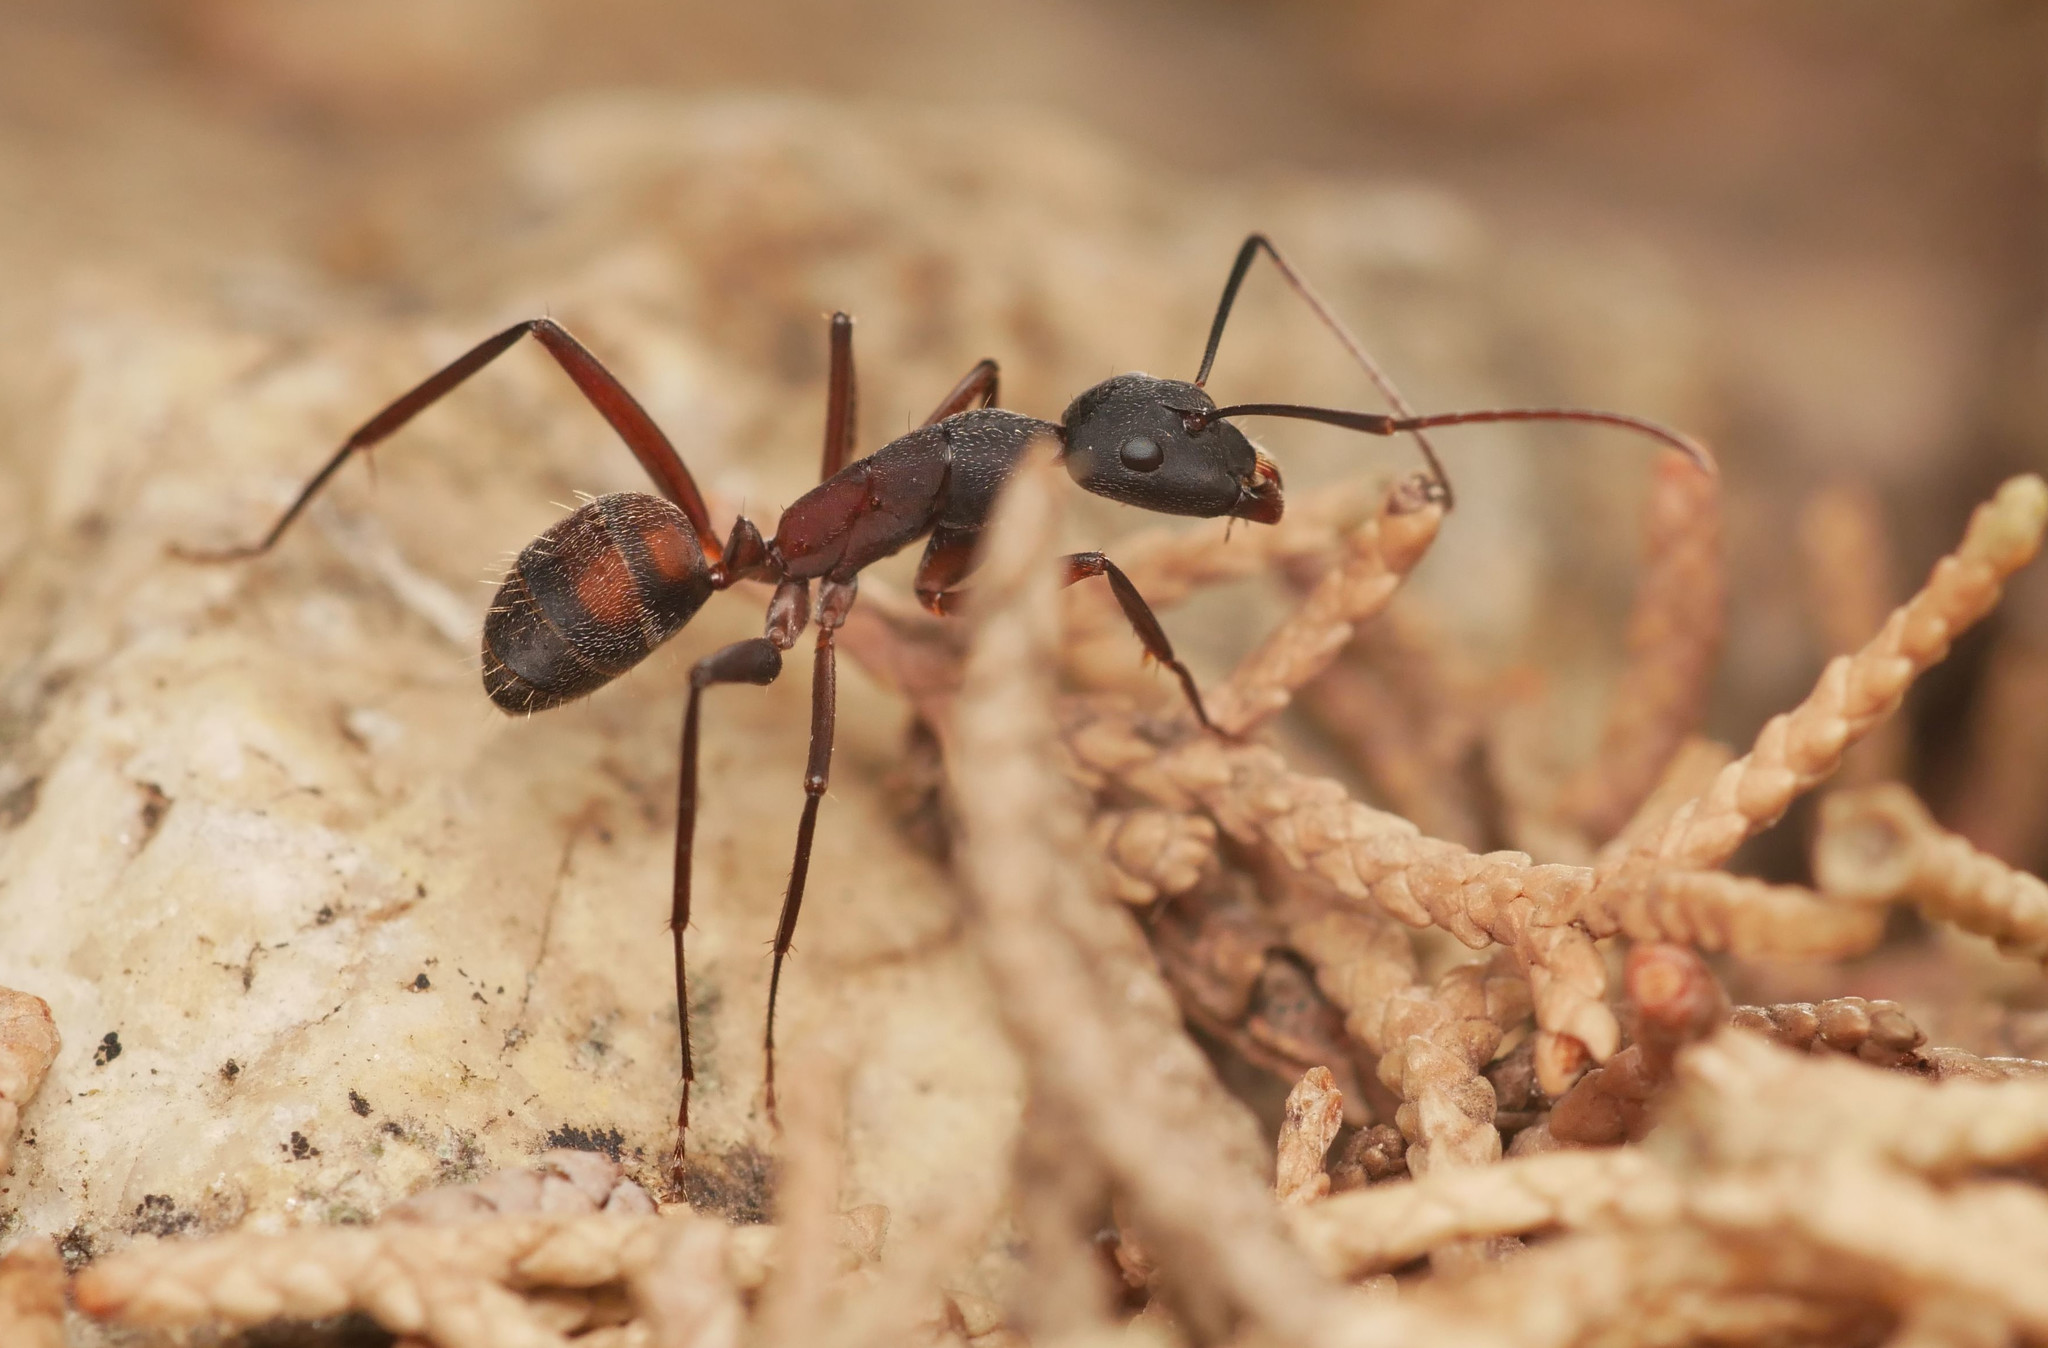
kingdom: Animalia
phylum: Arthropoda
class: Insecta
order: Hymenoptera
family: Formicidae
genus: Camponotus
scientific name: Camponotus cruentatus
